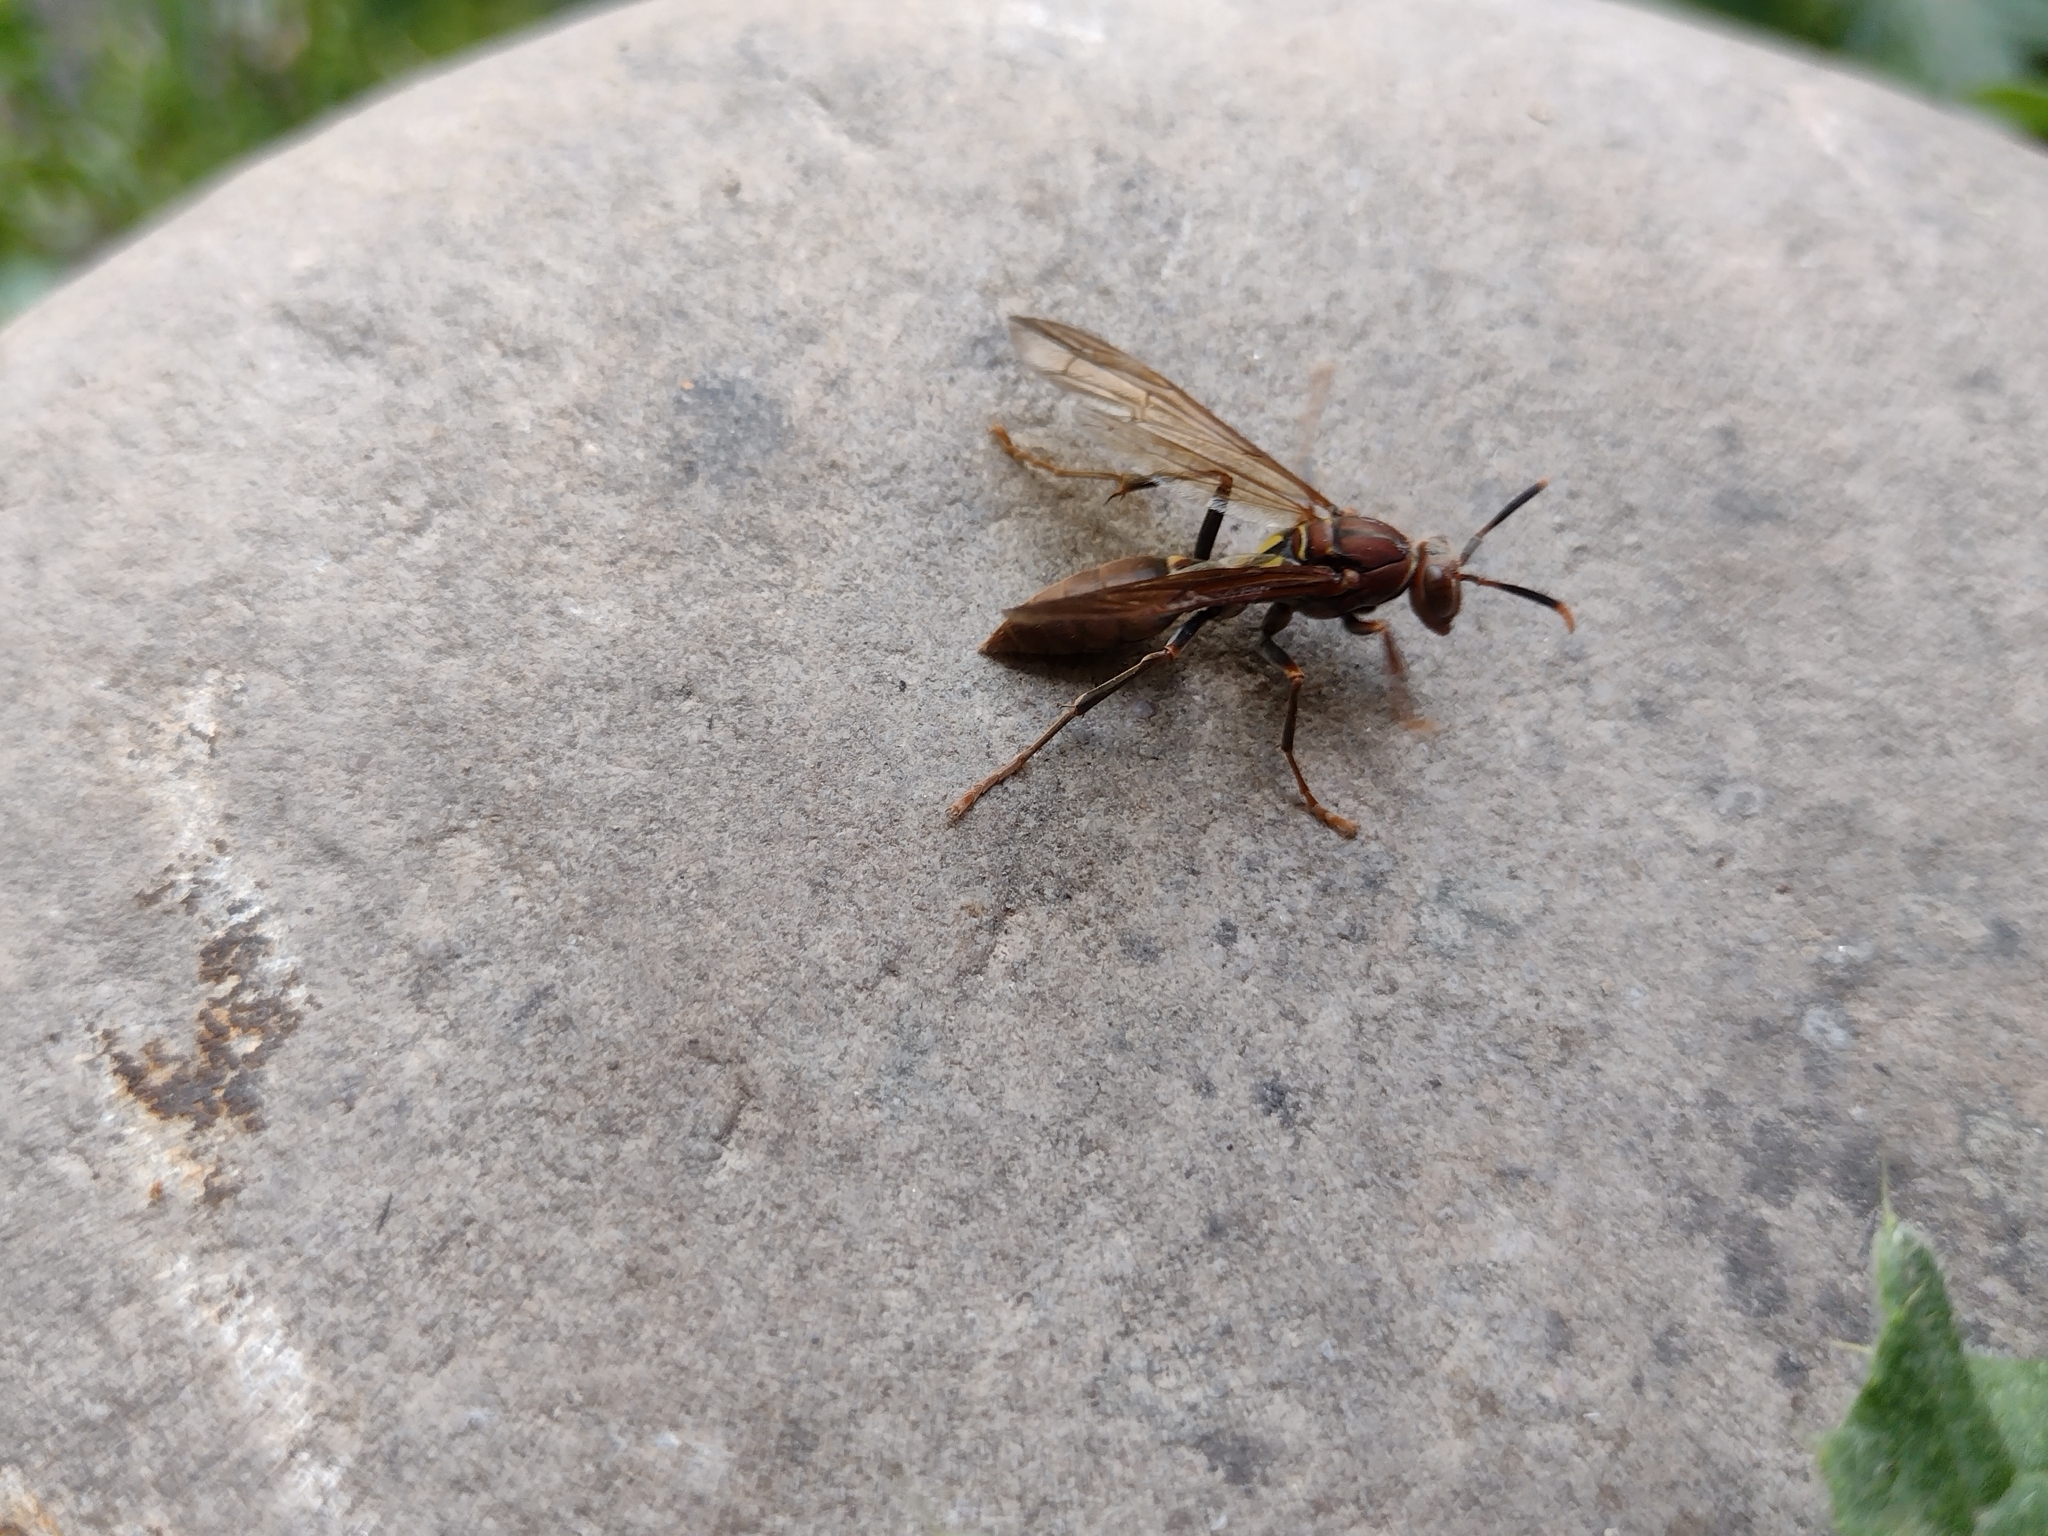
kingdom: Animalia
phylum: Arthropoda
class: Insecta
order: Hymenoptera
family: Pompilidae
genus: Aphanilopterus
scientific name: Aphanilopterus
